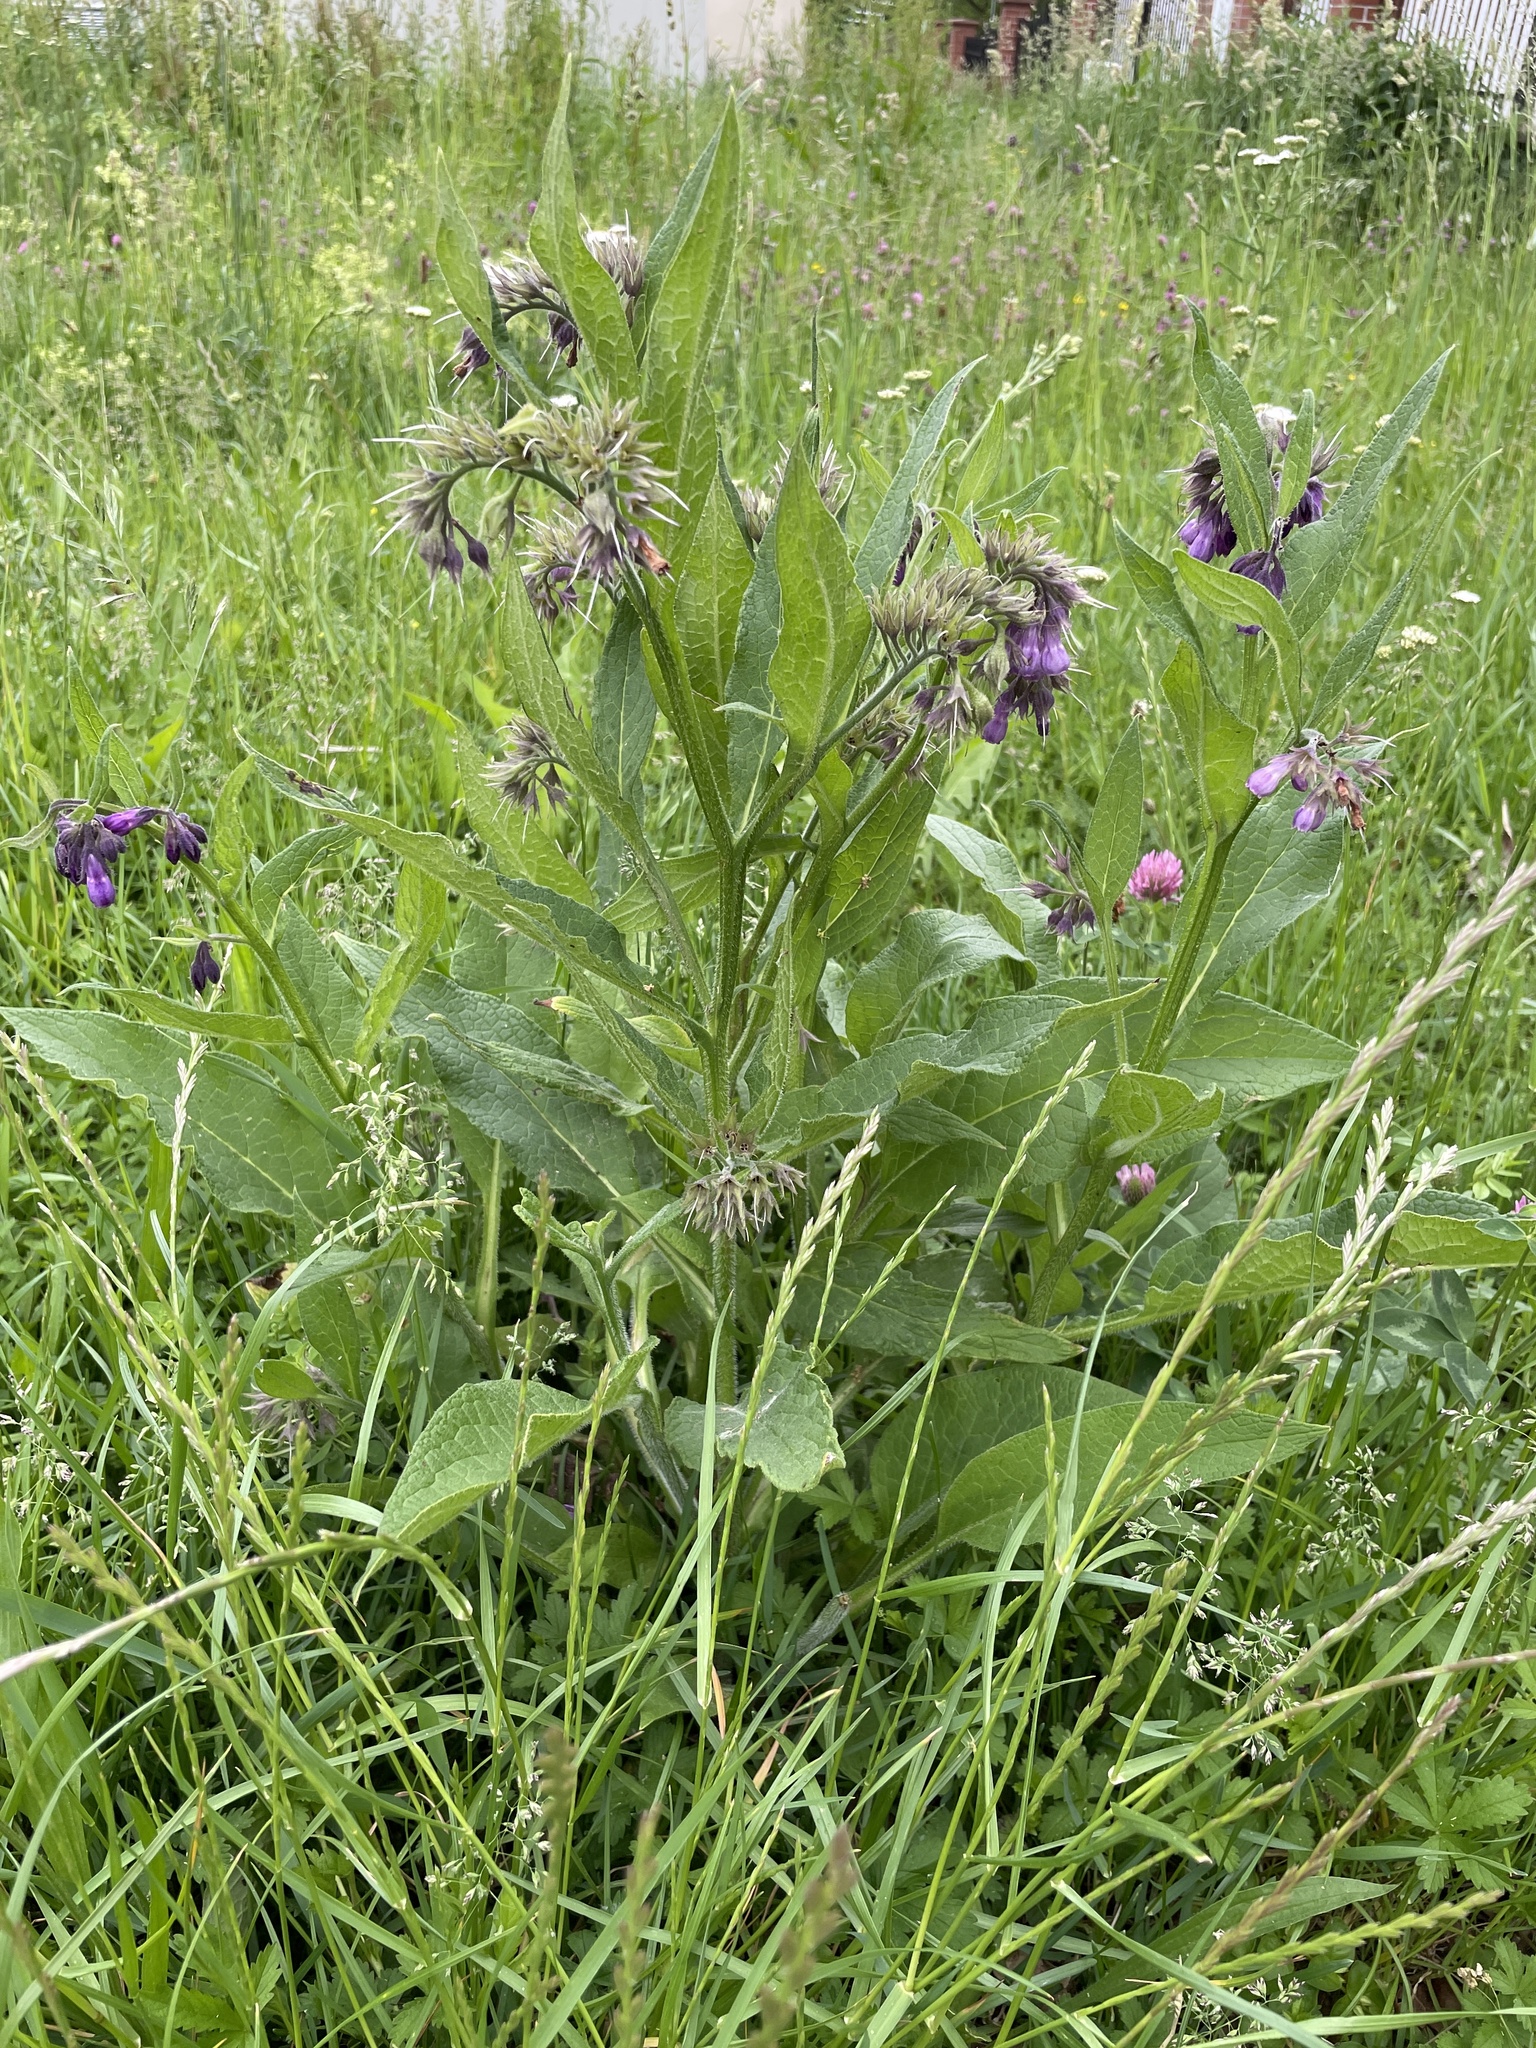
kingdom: Plantae
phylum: Tracheophyta
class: Magnoliopsida
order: Boraginales
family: Boraginaceae
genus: Symphytum
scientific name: Symphytum officinale
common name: Common comfrey
